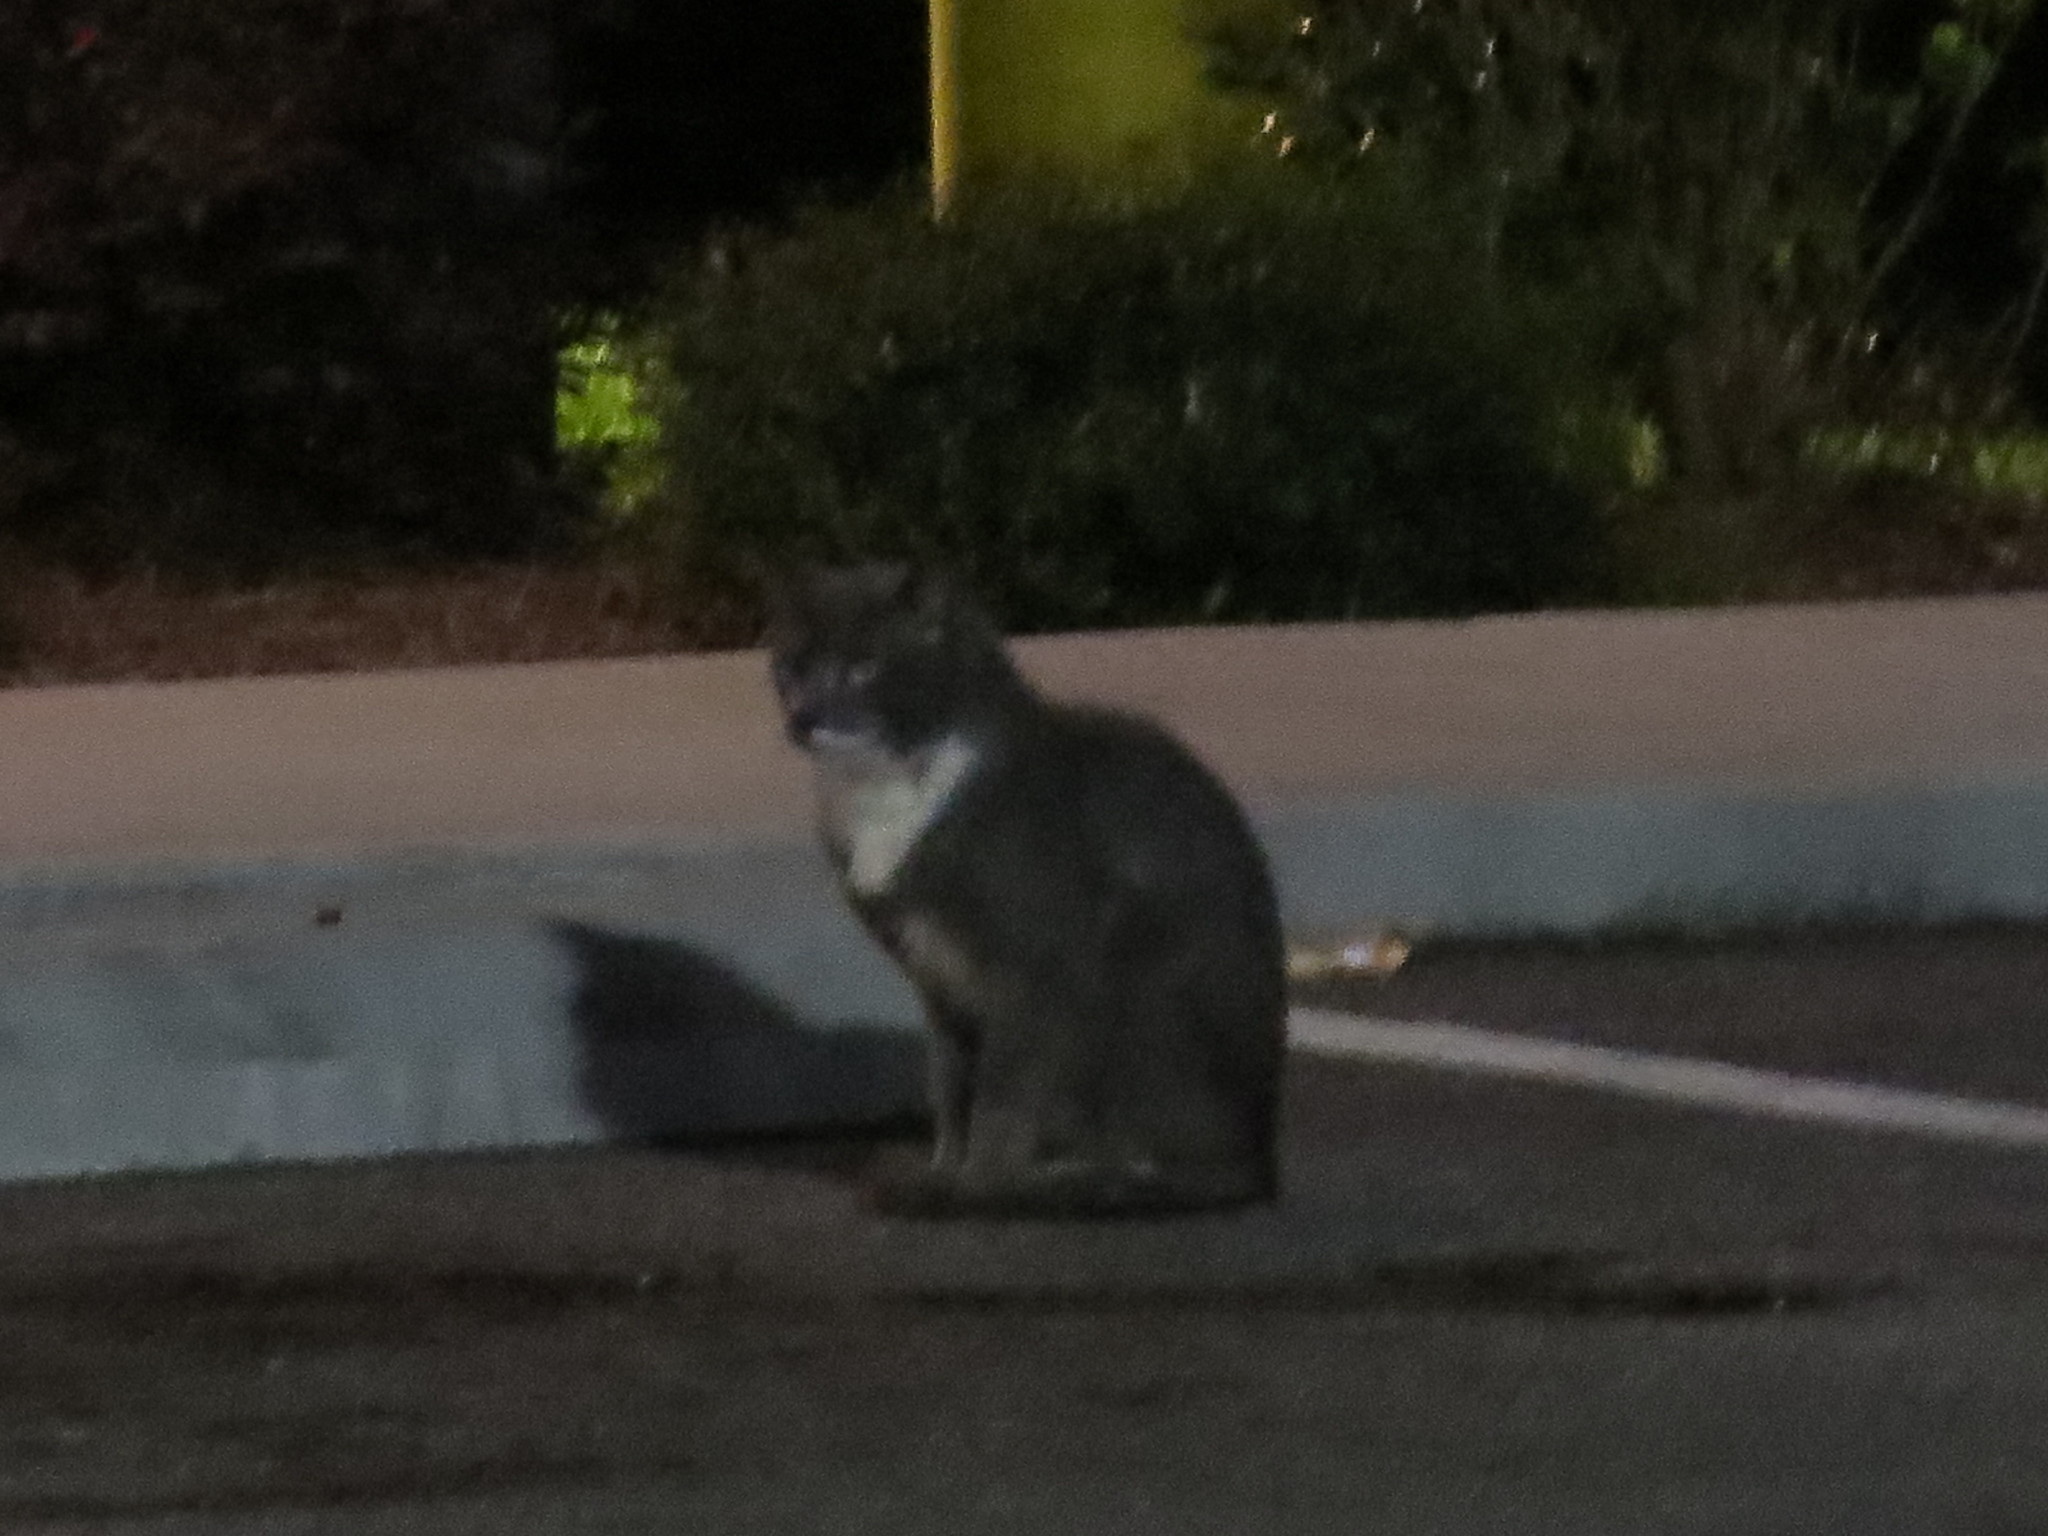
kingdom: Animalia
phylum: Chordata
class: Mammalia
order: Carnivora
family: Felidae
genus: Felis
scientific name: Felis catus
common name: Domestic cat
